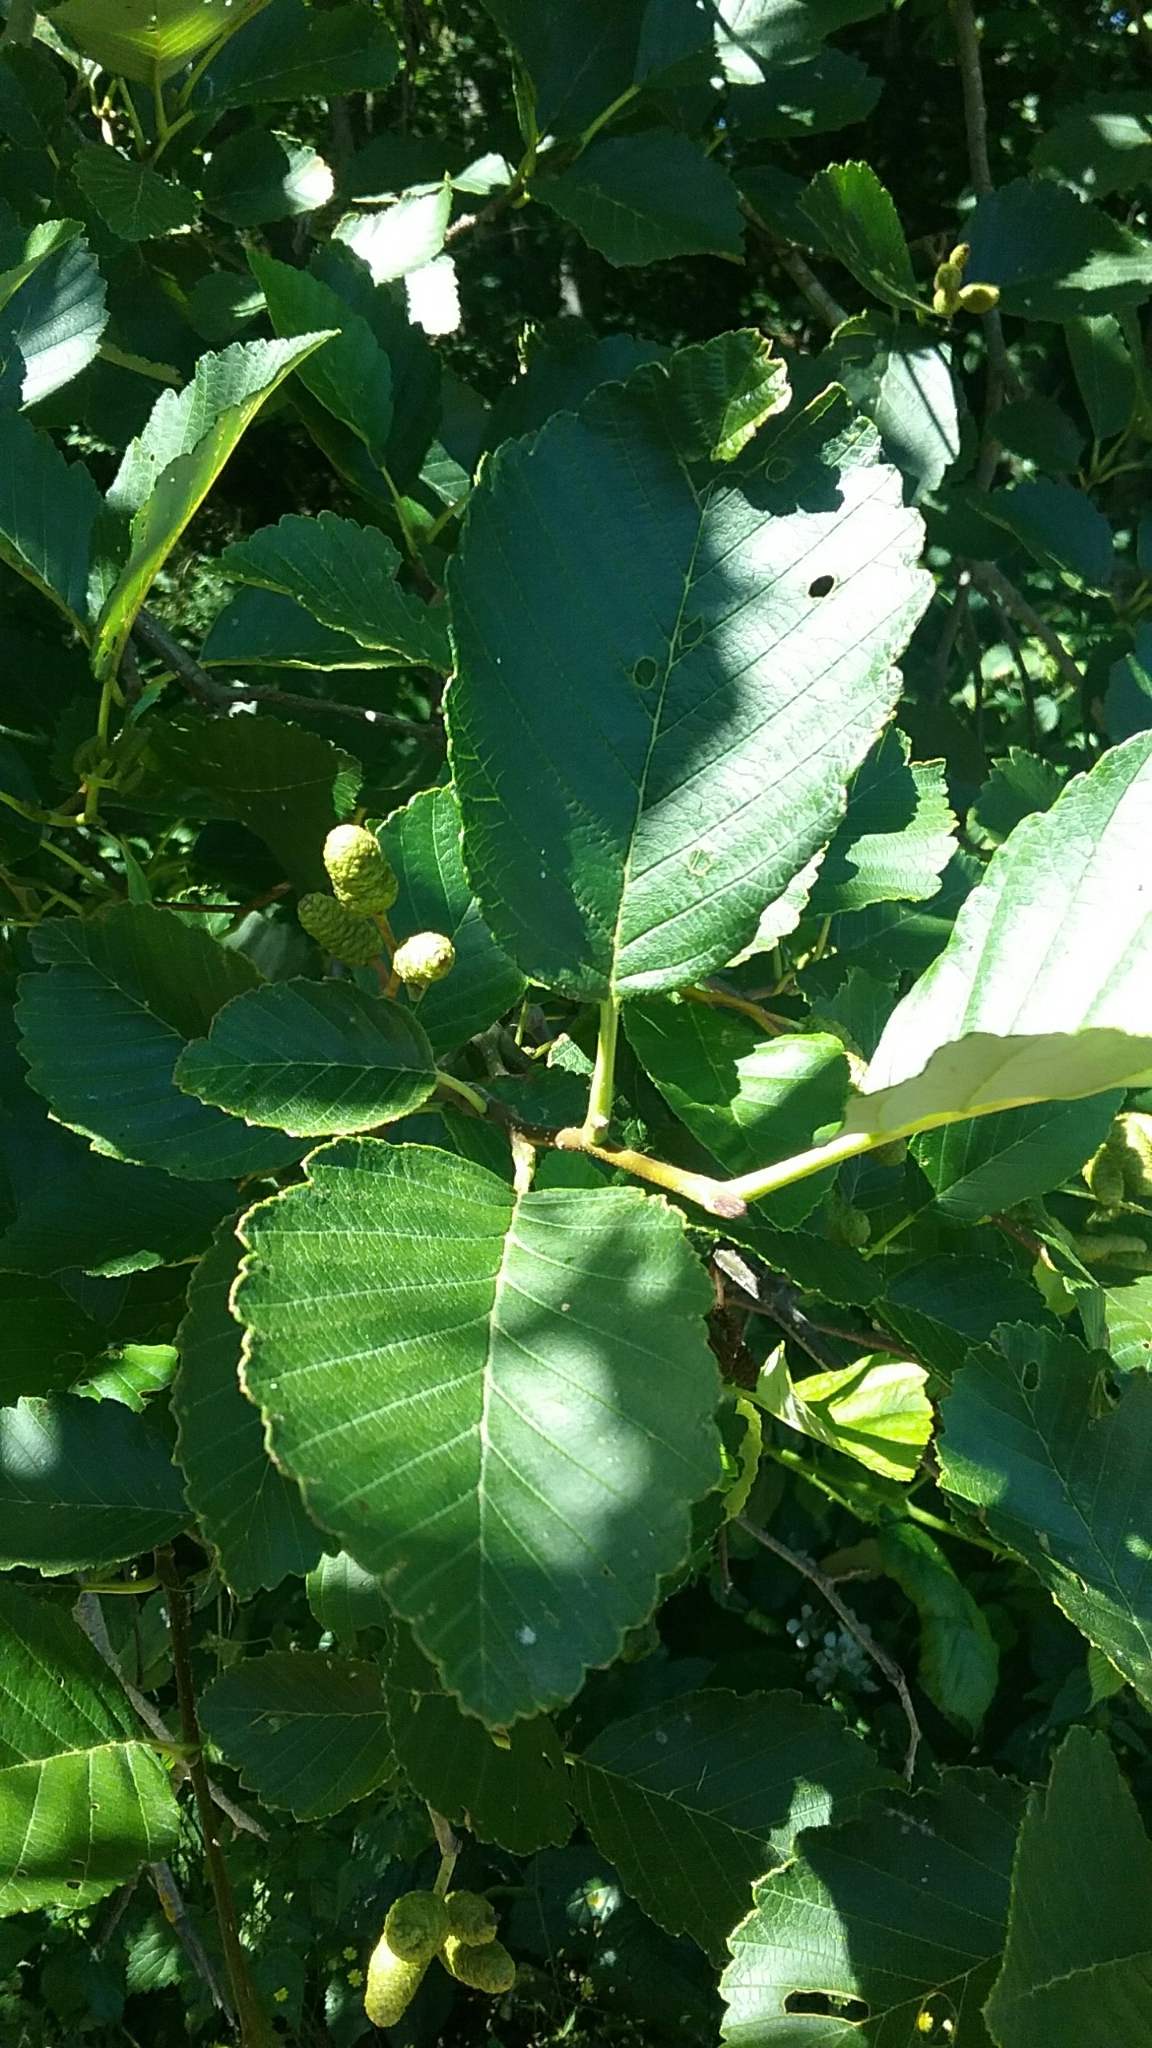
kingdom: Plantae
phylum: Tracheophyta
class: Magnoliopsida
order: Fagales
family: Betulaceae
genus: Alnus
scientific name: Alnus rubra
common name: Red alder
